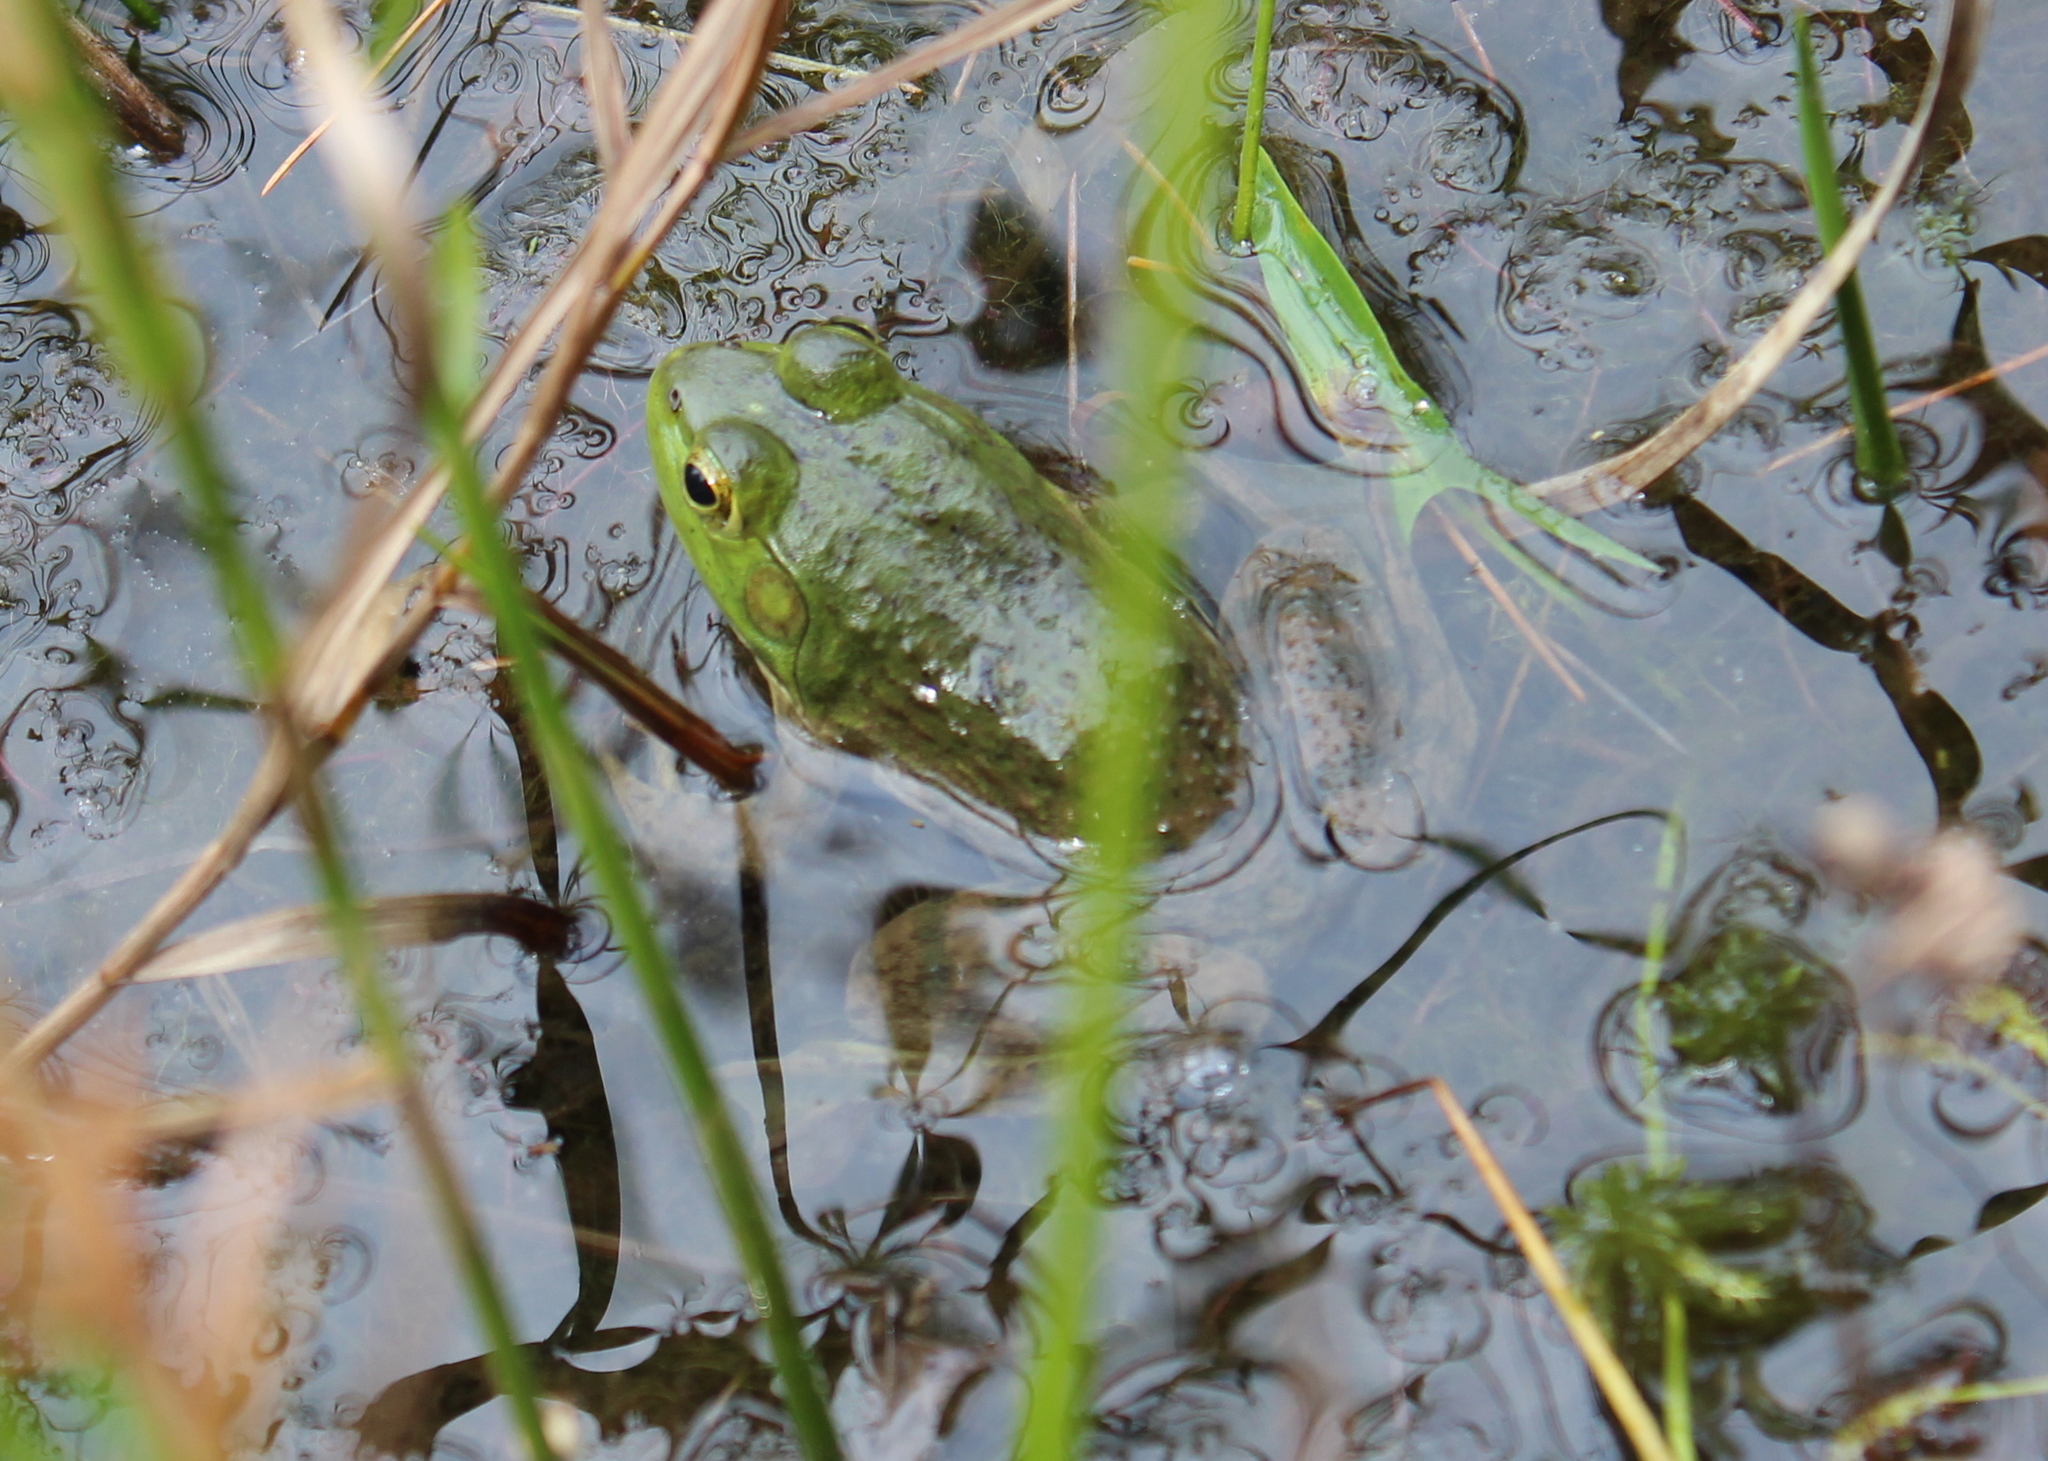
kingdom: Animalia
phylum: Chordata
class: Amphibia
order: Anura
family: Ranidae
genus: Lithobates
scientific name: Lithobates catesbeianus
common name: American bullfrog
